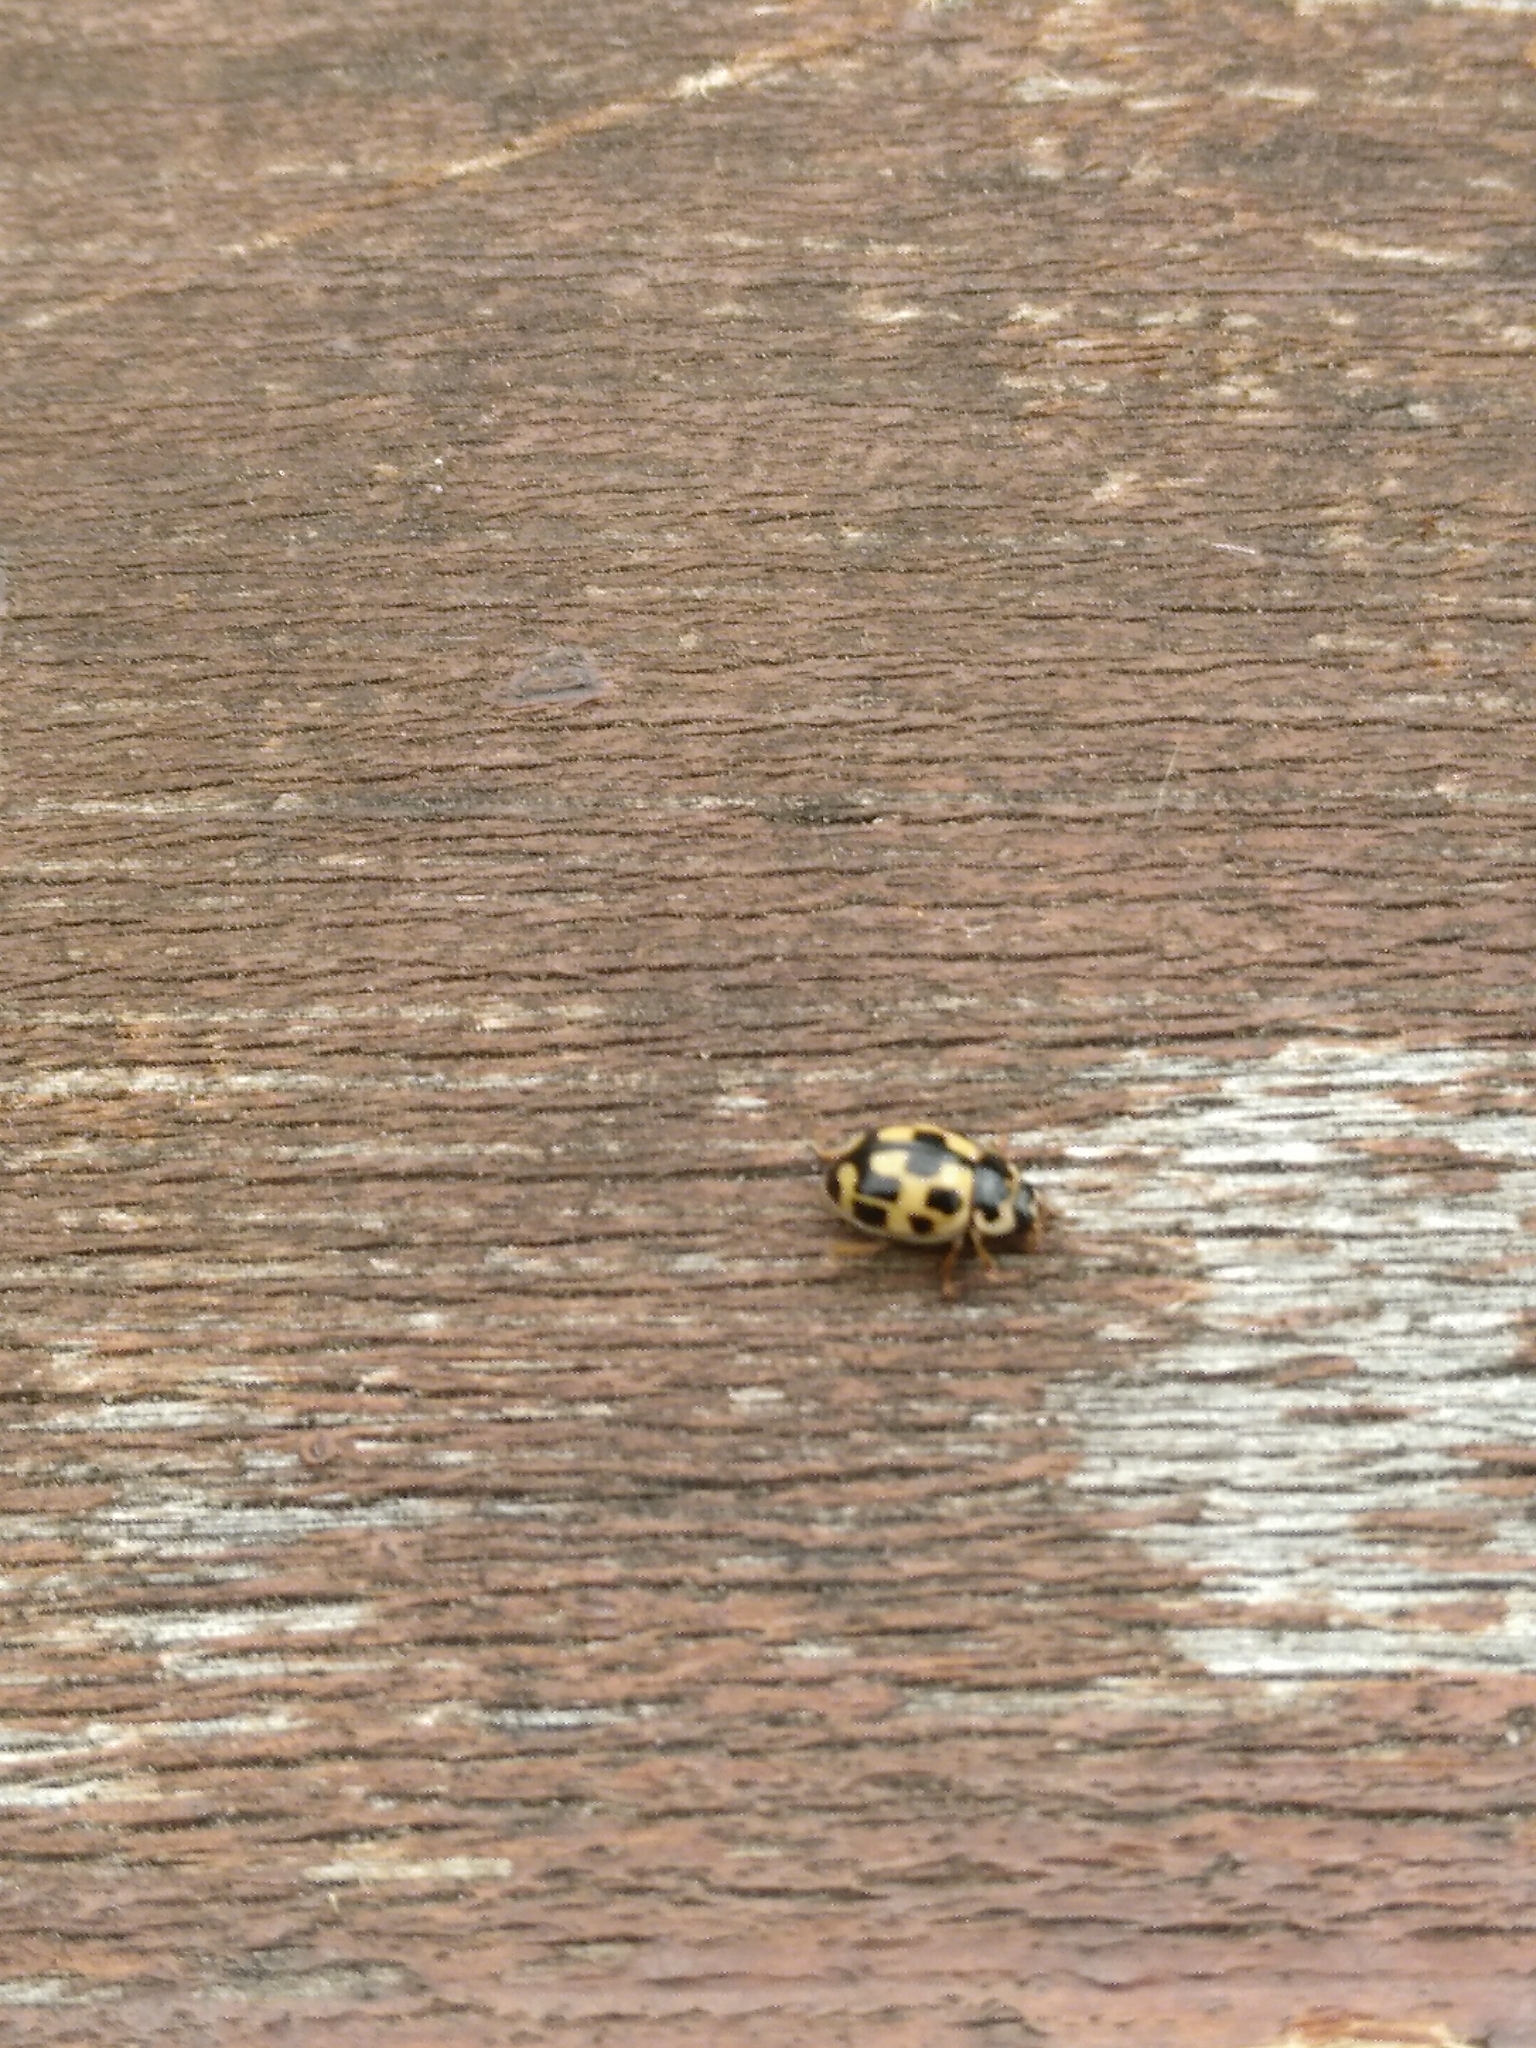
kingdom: Animalia
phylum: Arthropoda
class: Insecta
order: Coleoptera
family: Coccinellidae
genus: Propylaea
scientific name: Propylaea quatuordecimpunctata
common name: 14-spotted ladybird beetle
